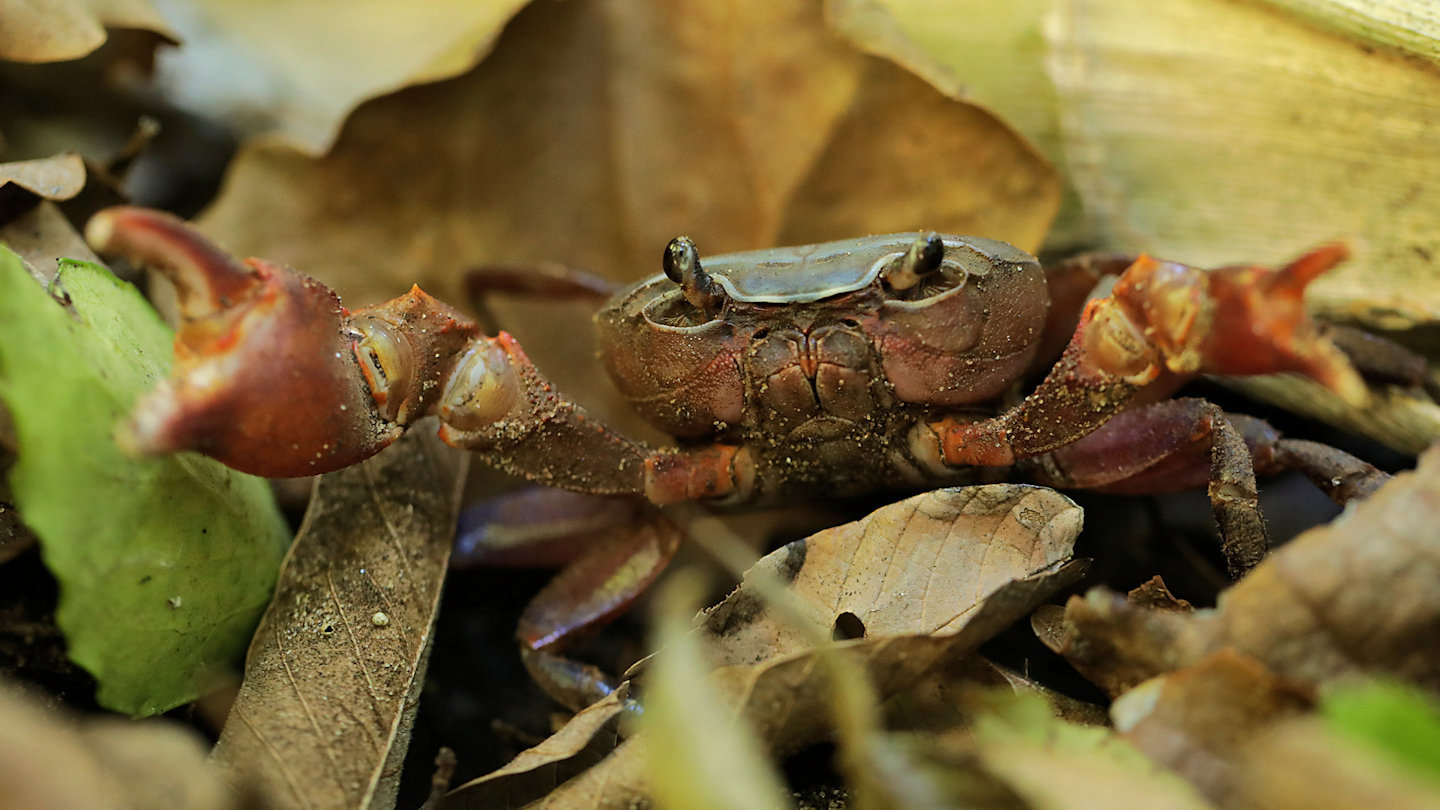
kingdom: Animalia
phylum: Arthropoda
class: Malacostraca
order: Decapoda
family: Potamonautidae
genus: Potamonautes
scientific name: Potamonautes lividus
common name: Blue river crab
